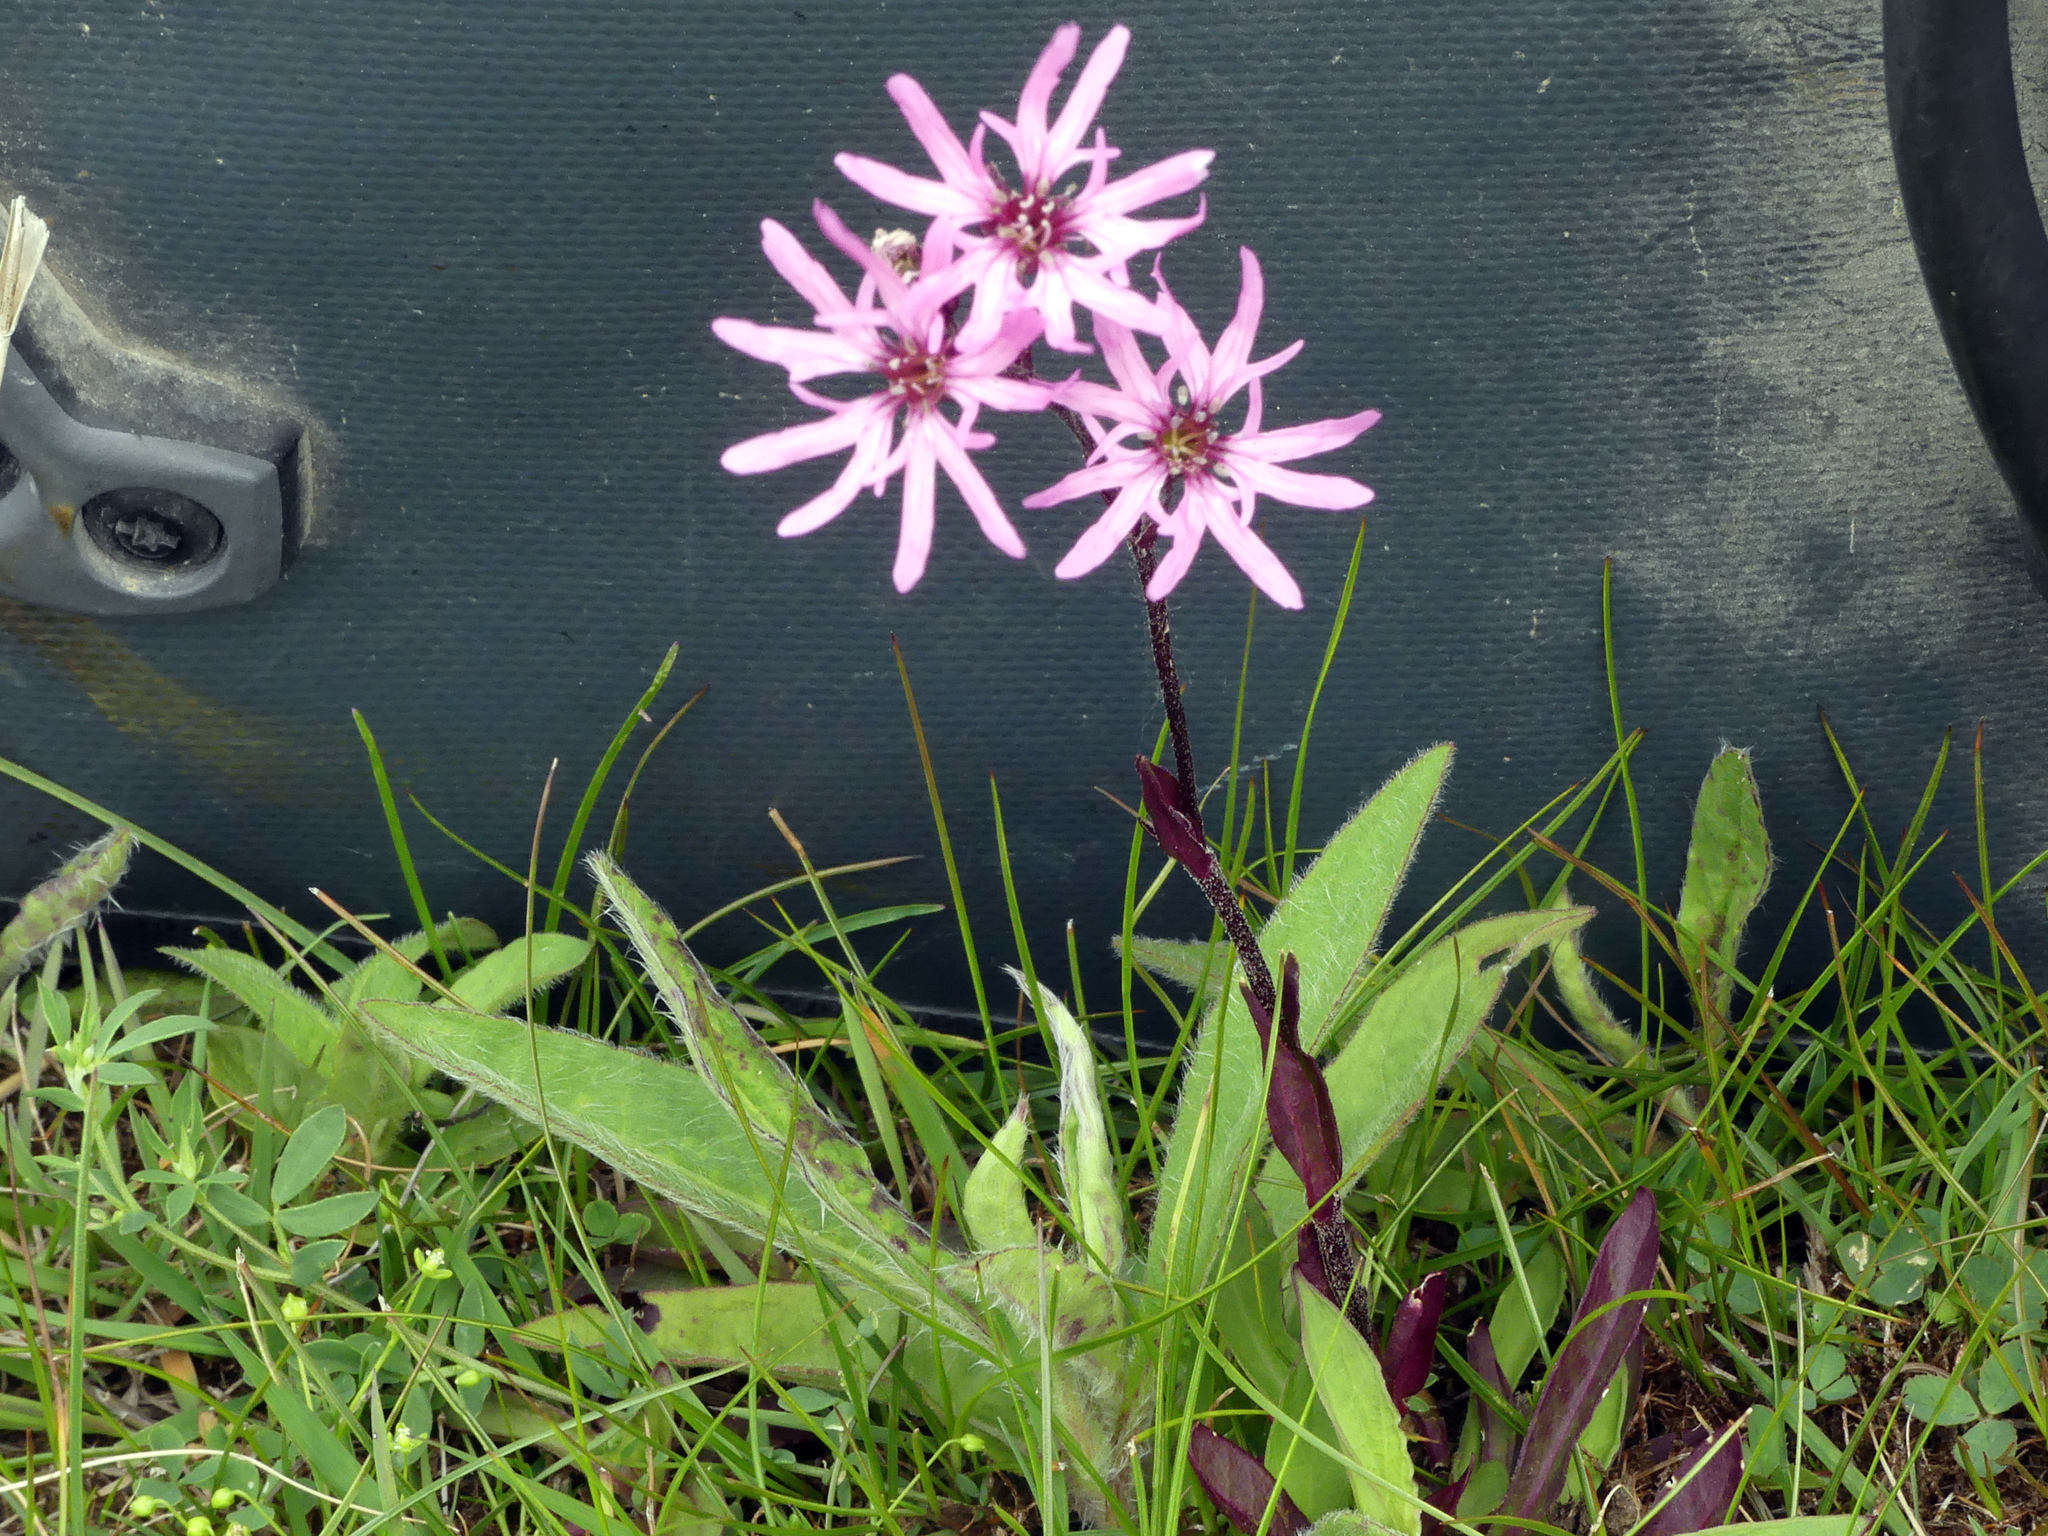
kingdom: Plantae
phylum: Tracheophyta
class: Magnoliopsida
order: Caryophyllales
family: Caryophyllaceae
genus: Silene
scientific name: Silene flos-cuculi
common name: Ragged-robin
